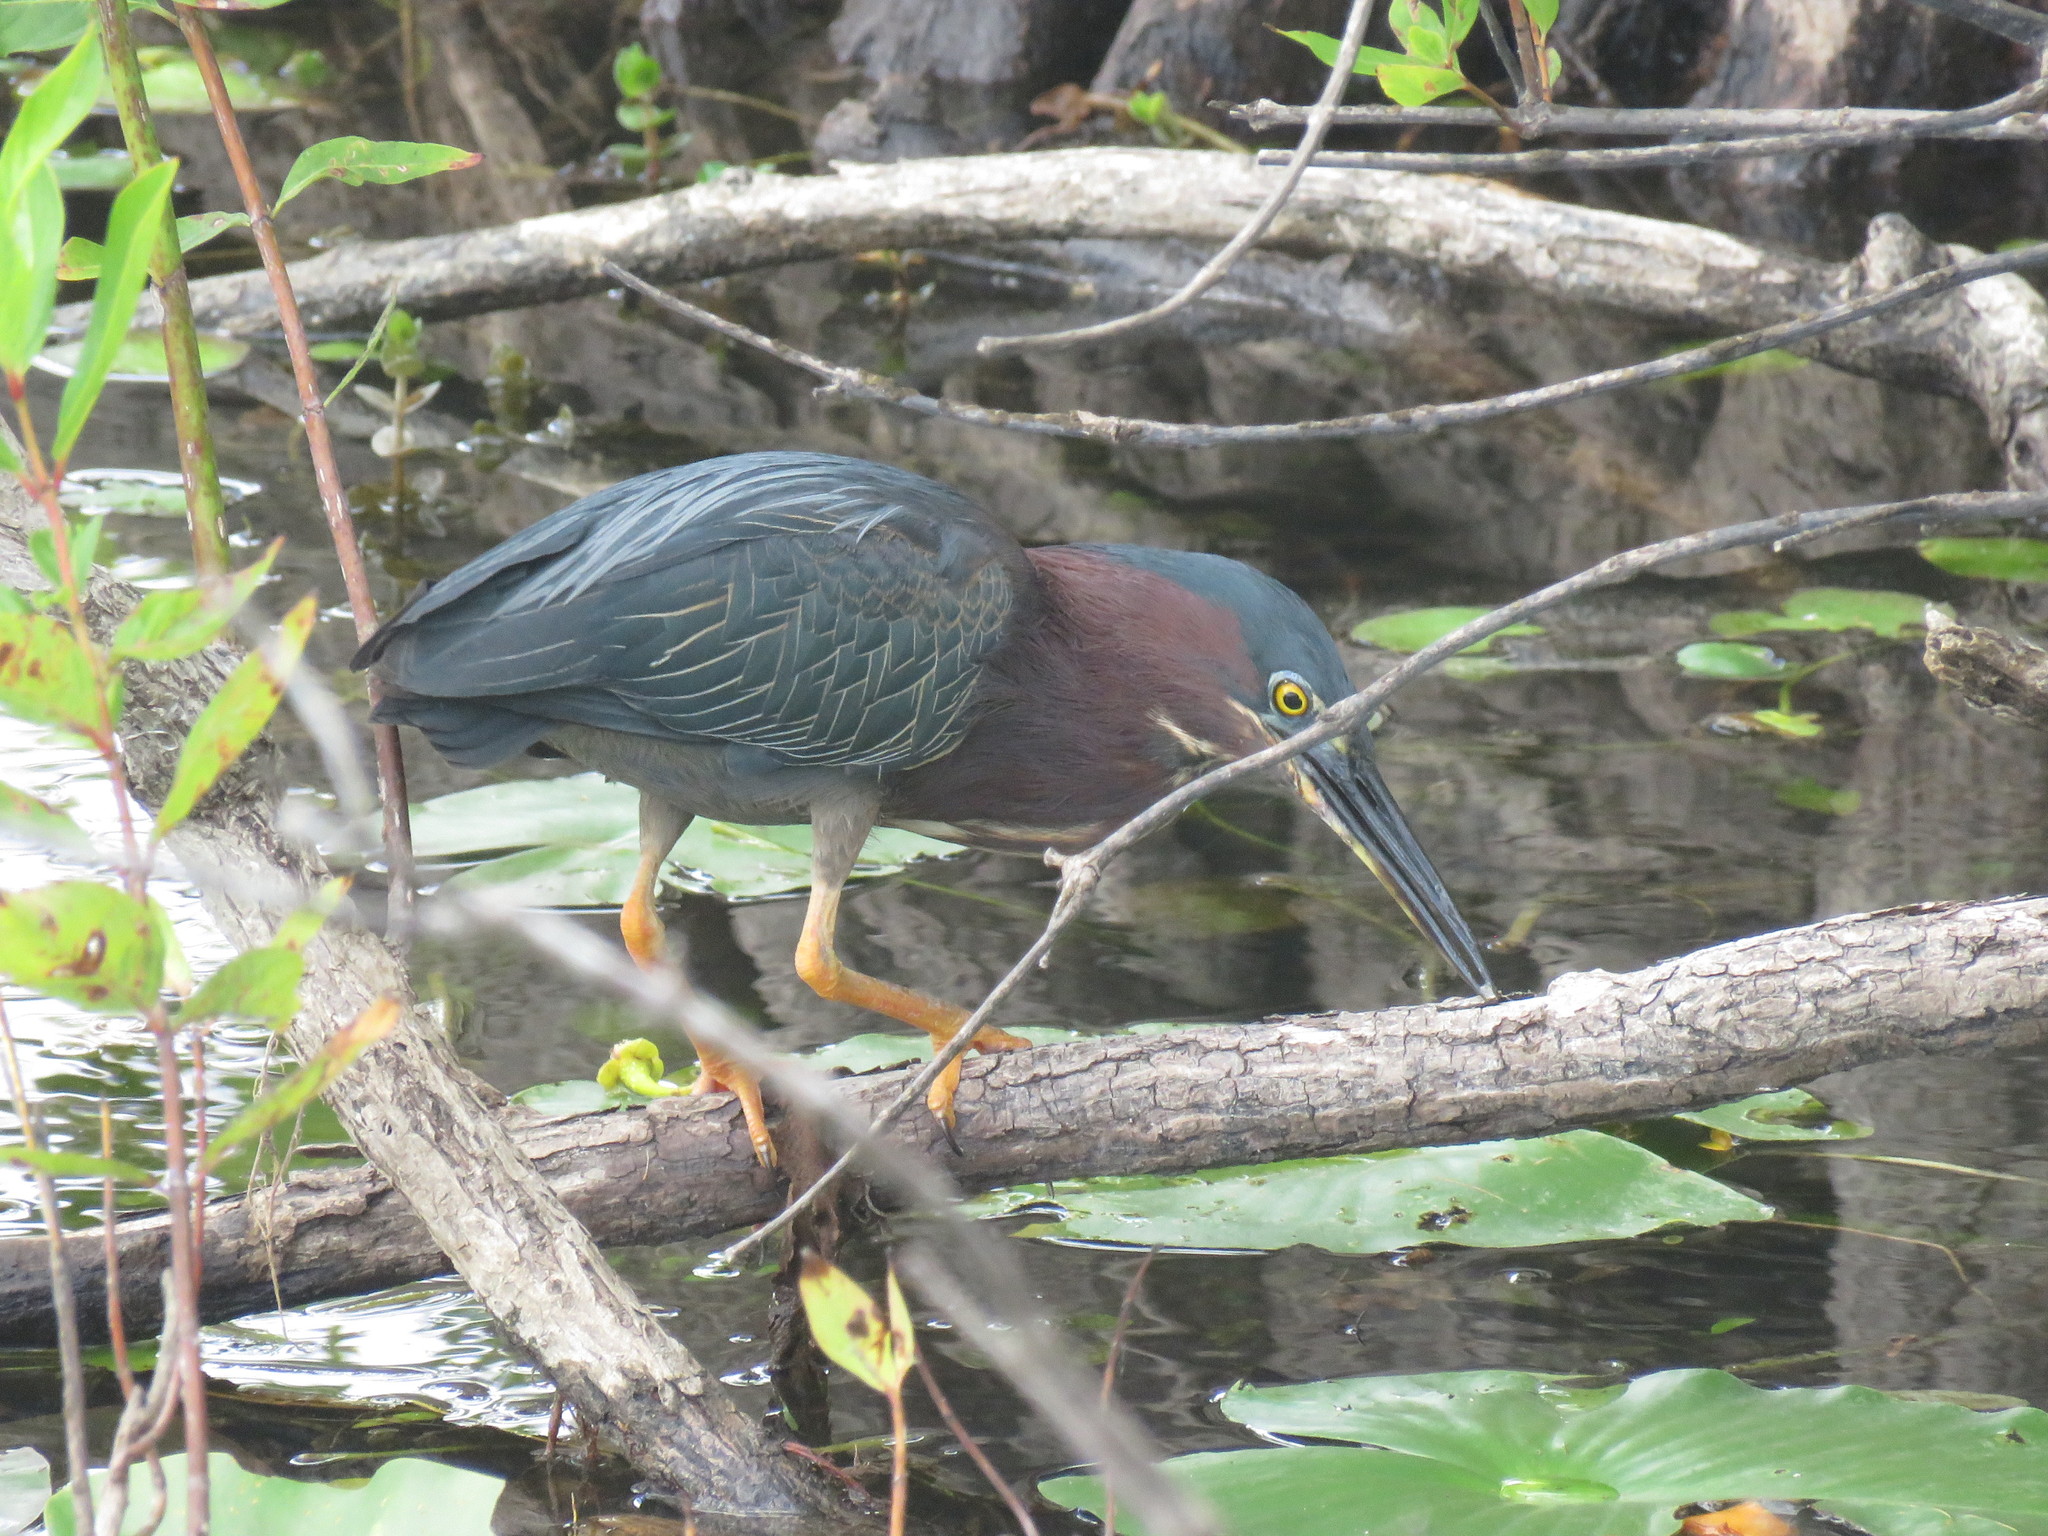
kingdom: Animalia
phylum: Chordata
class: Aves
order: Pelecaniformes
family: Ardeidae
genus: Butorides
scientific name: Butorides virescens
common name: Green heron
